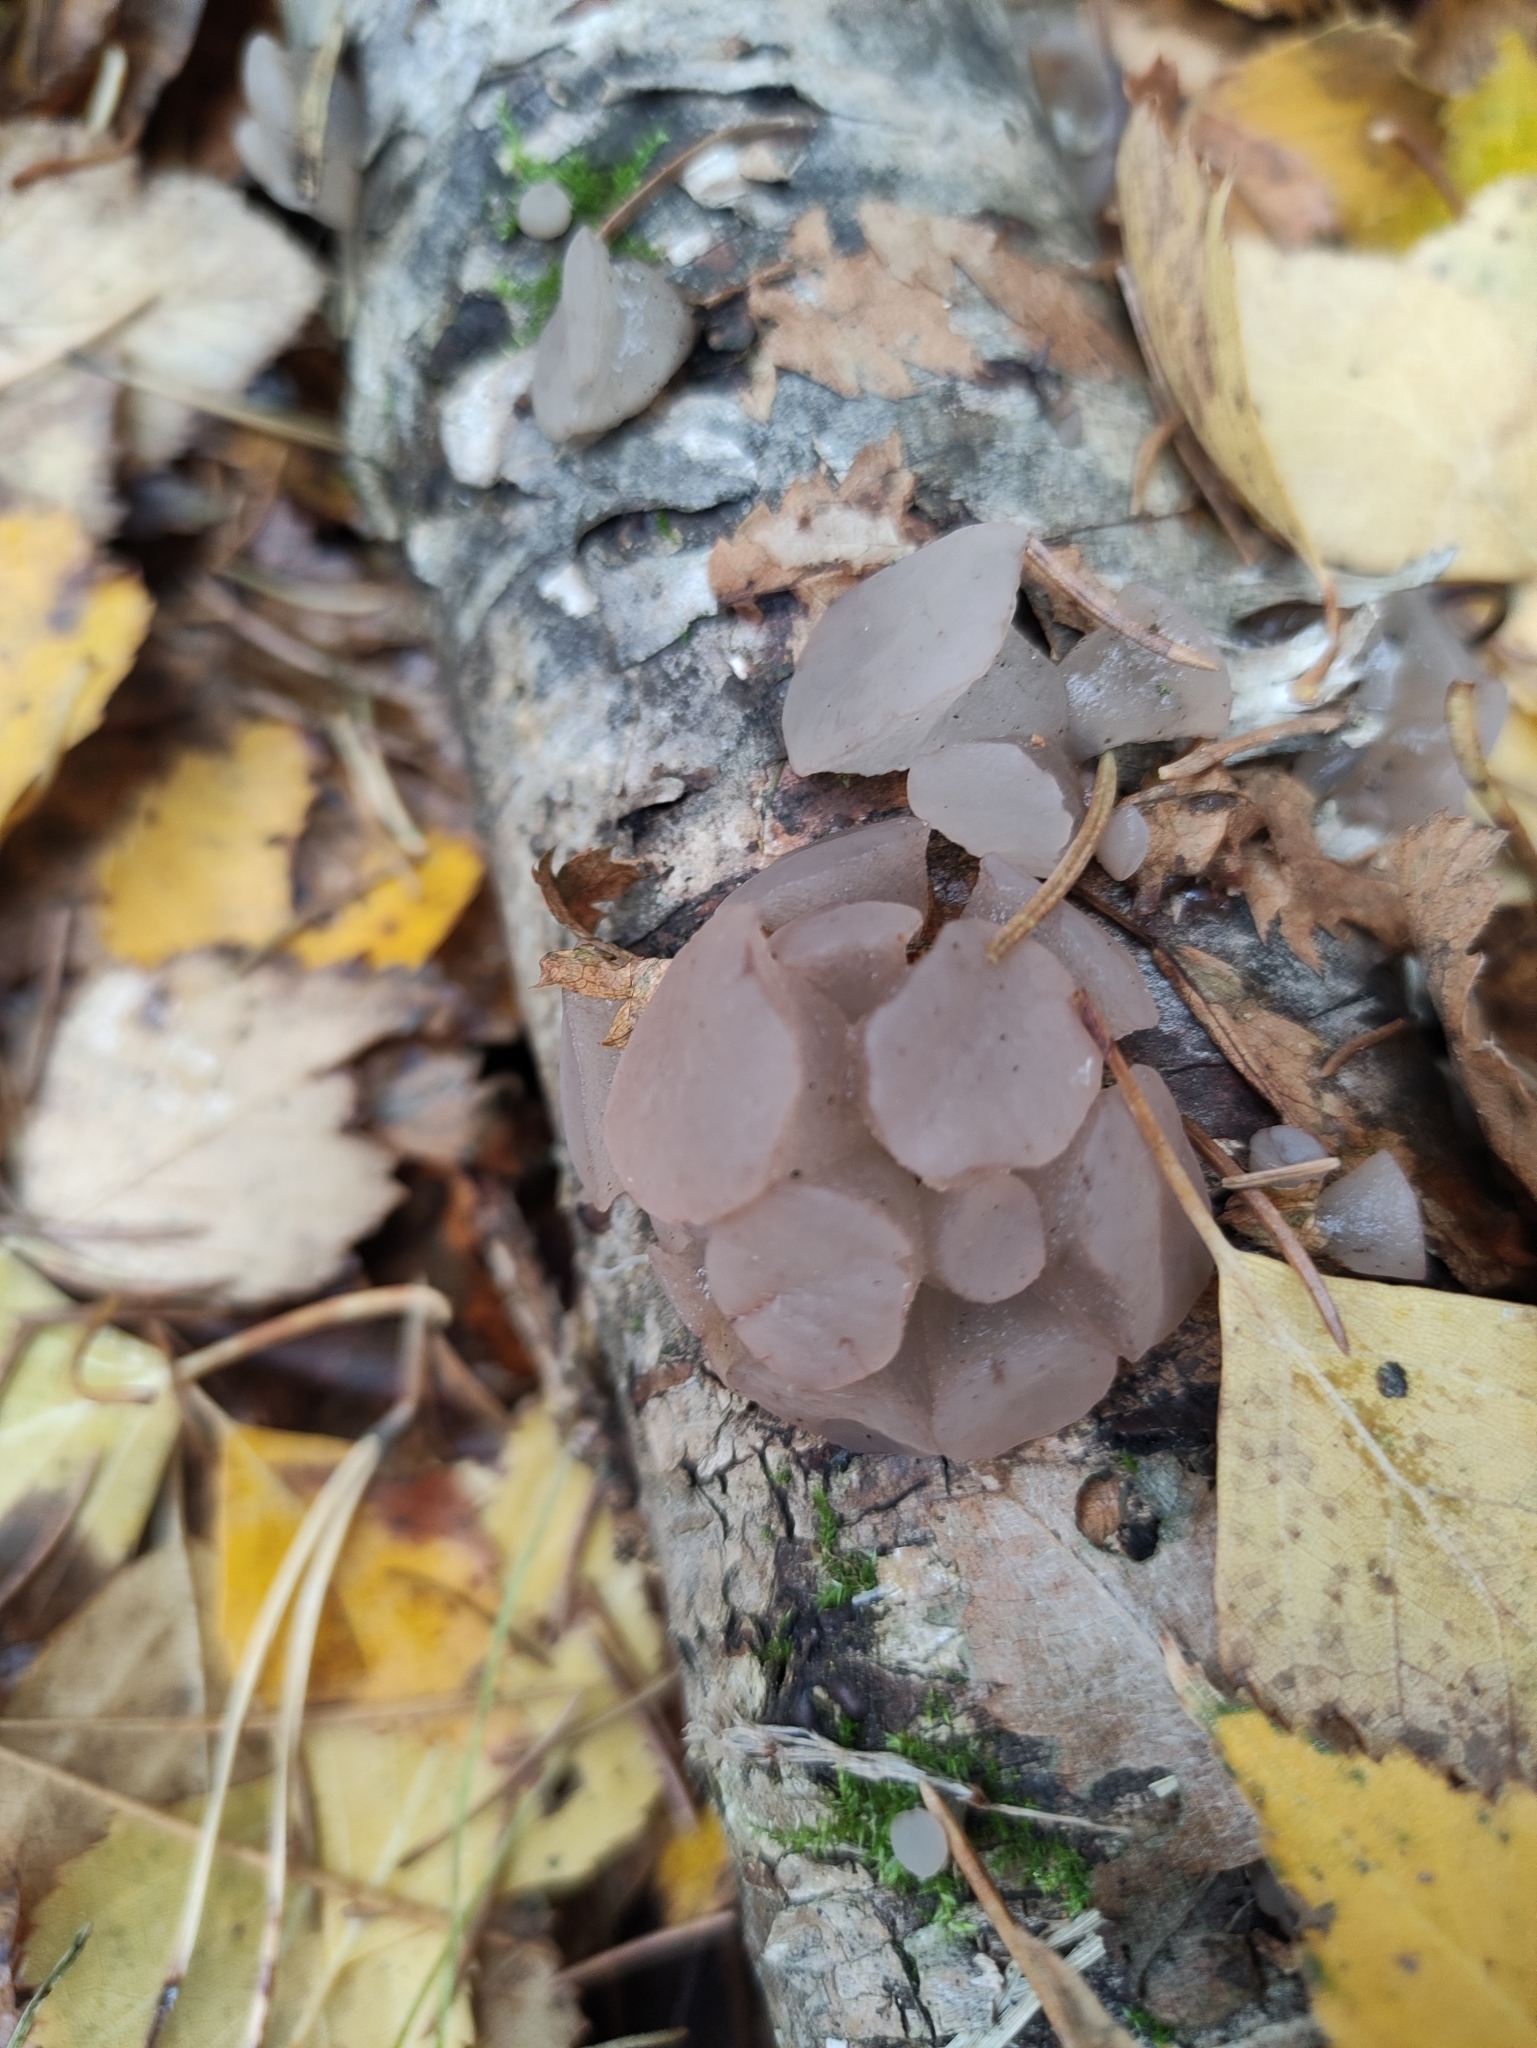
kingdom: Fungi
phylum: Ascomycota
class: Leotiomycetes
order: Helotiales
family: Gelatinodiscaceae
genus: Neobulgaria
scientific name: Neobulgaria pura
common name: Beech jelly-disc
